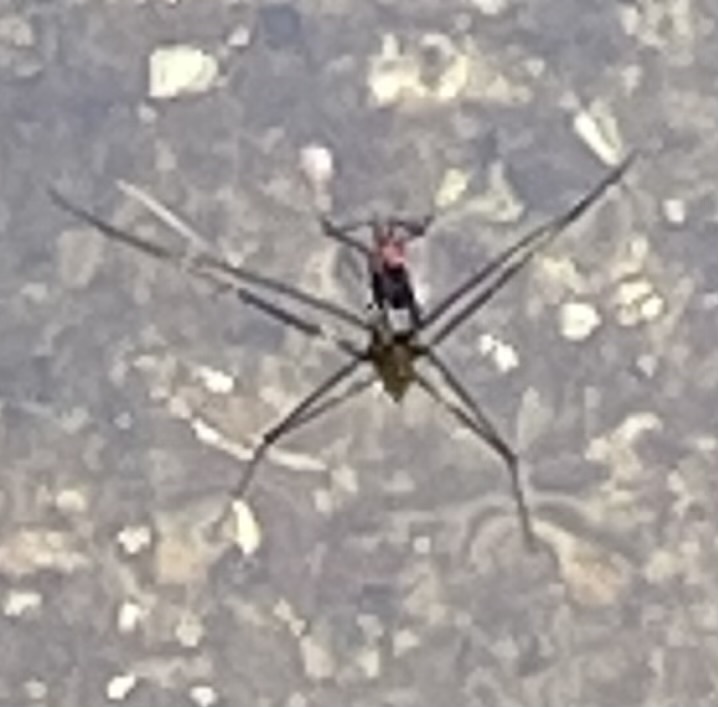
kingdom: Animalia
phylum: Arthropoda
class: Insecta
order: Hemiptera
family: Gerridae
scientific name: Gerridae
